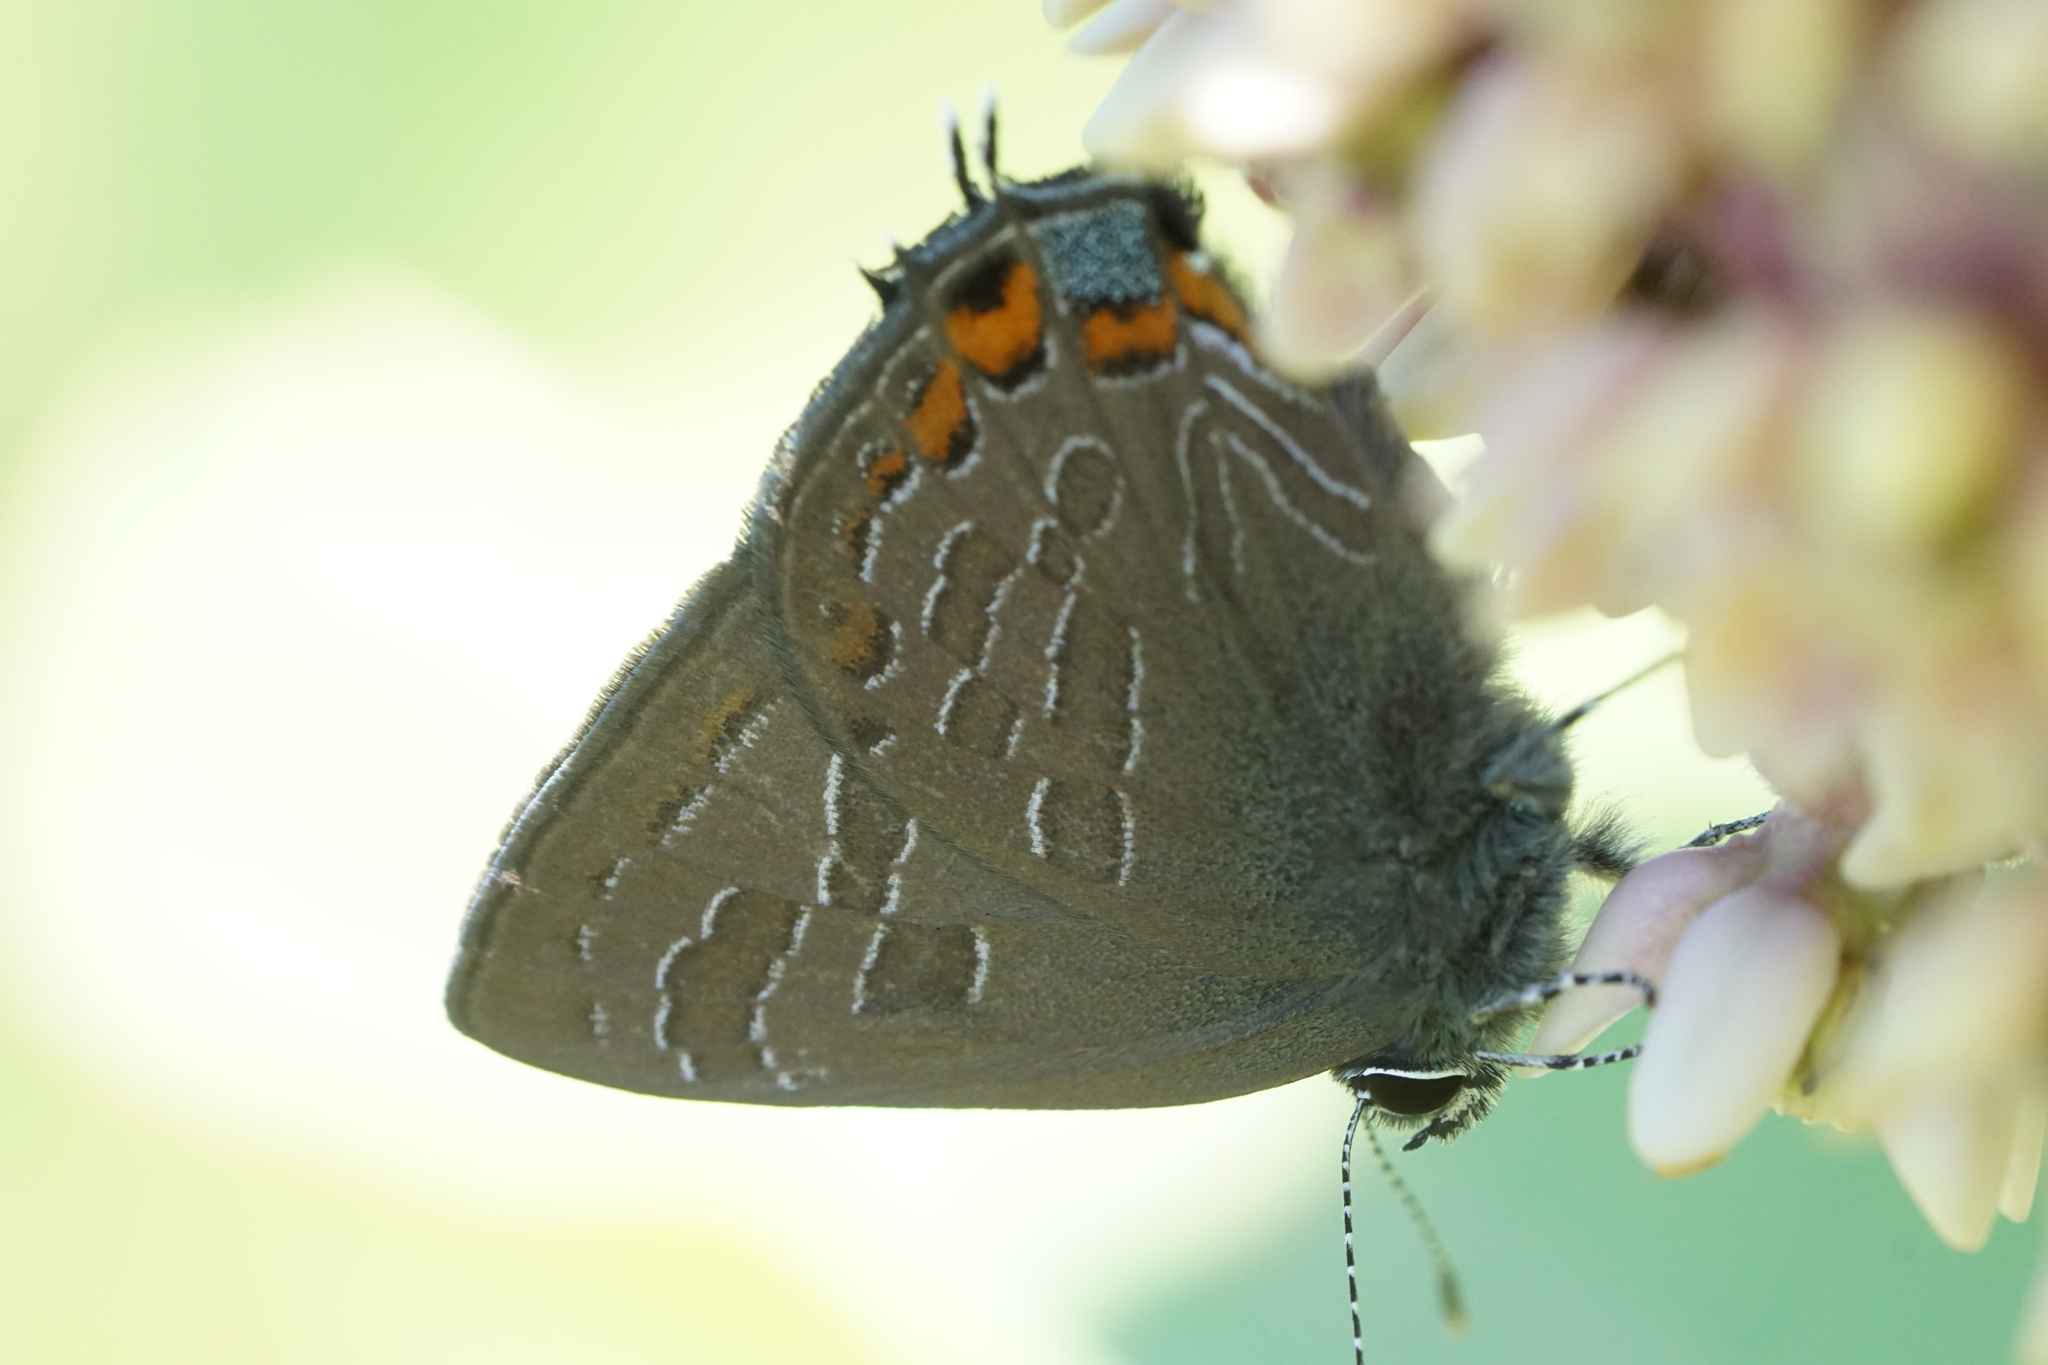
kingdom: Animalia
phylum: Arthropoda
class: Insecta
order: Lepidoptera
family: Lycaenidae
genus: Satyrium
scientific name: Satyrium liparops
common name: Striped hairstreak
